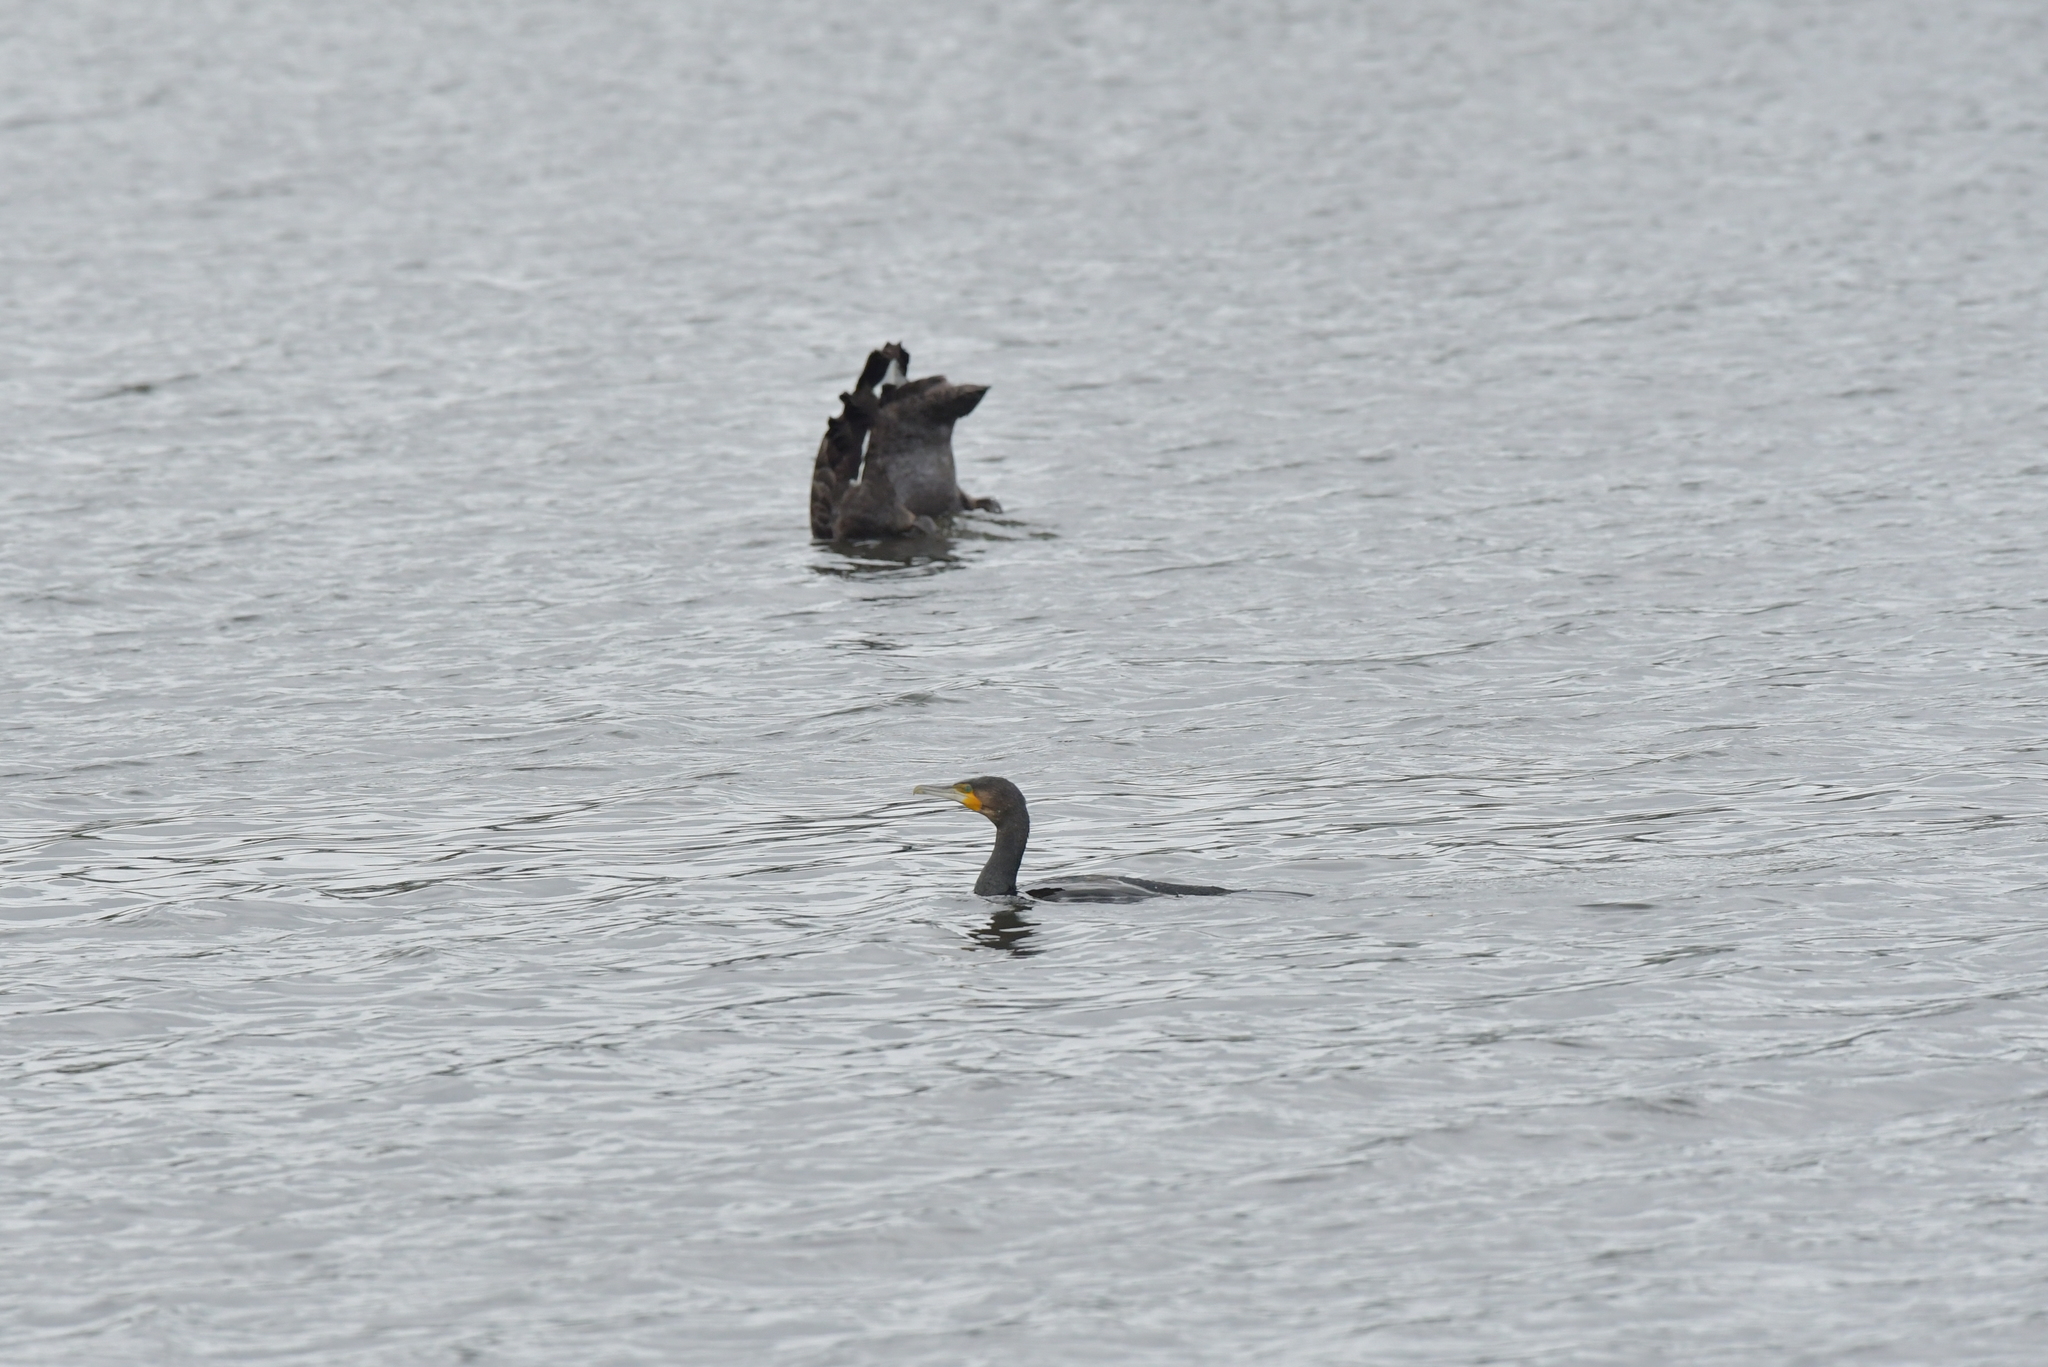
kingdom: Animalia
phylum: Chordata
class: Aves
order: Suliformes
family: Phalacrocoracidae
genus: Phalacrocorax
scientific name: Phalacrocorax carbo
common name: Great cormorant
